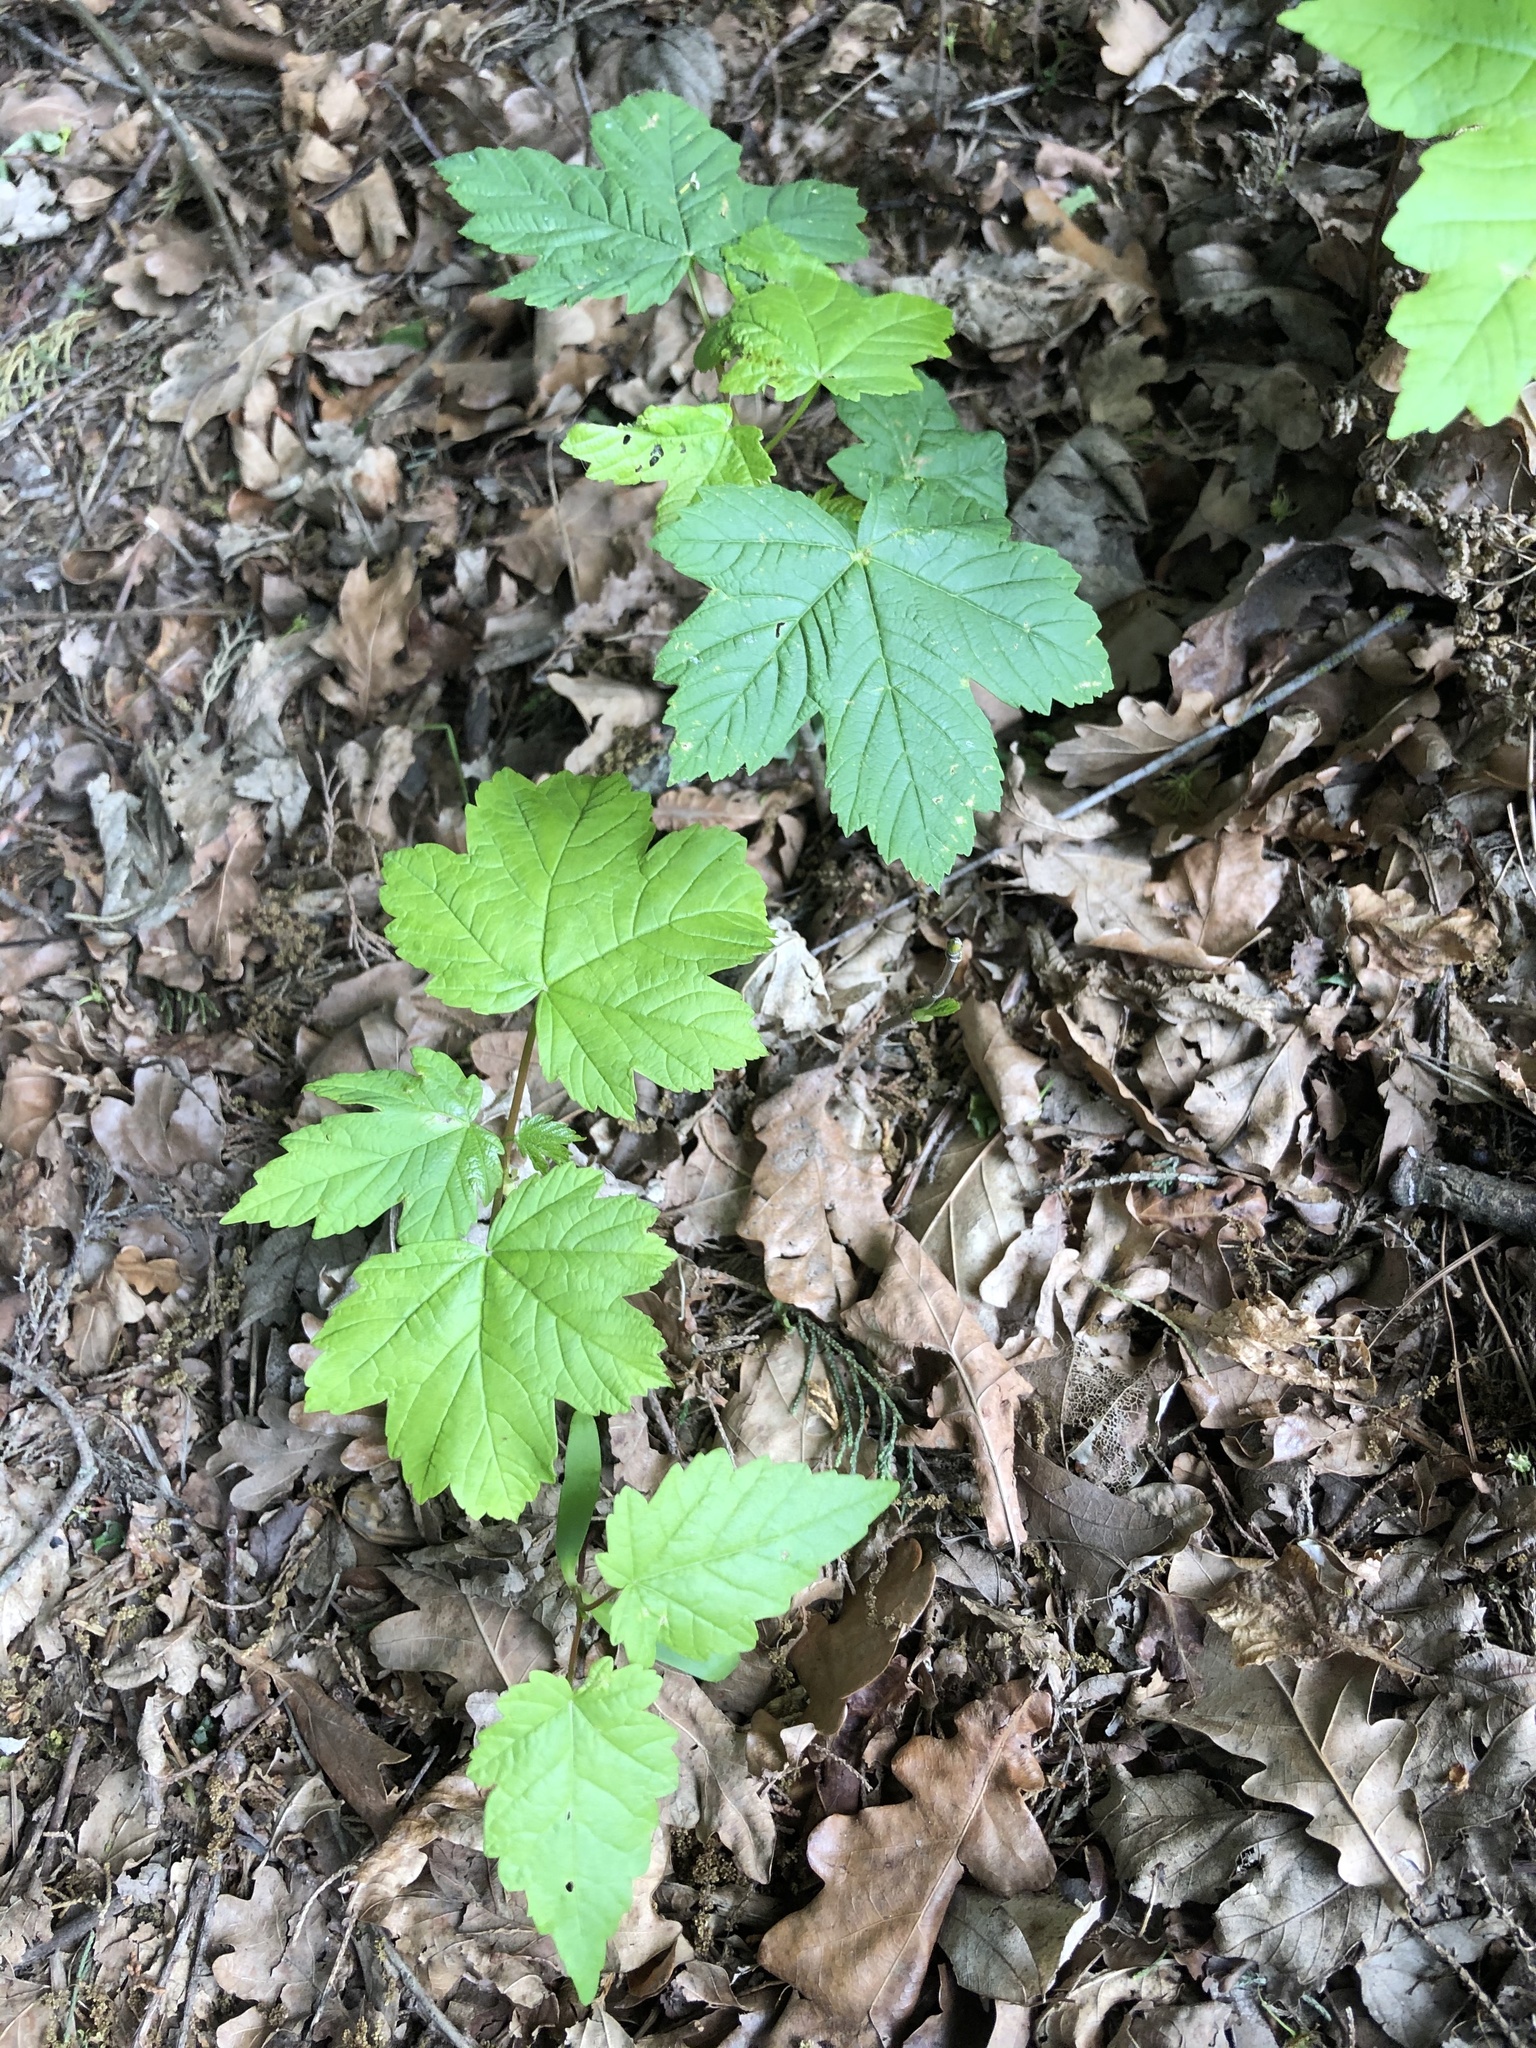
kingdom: Plantae
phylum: Tracheophyta
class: Magnoliopsida
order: Sapindales
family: Sapindaceae
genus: Acer
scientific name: Acer pseudoplatanus
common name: Sycamore
